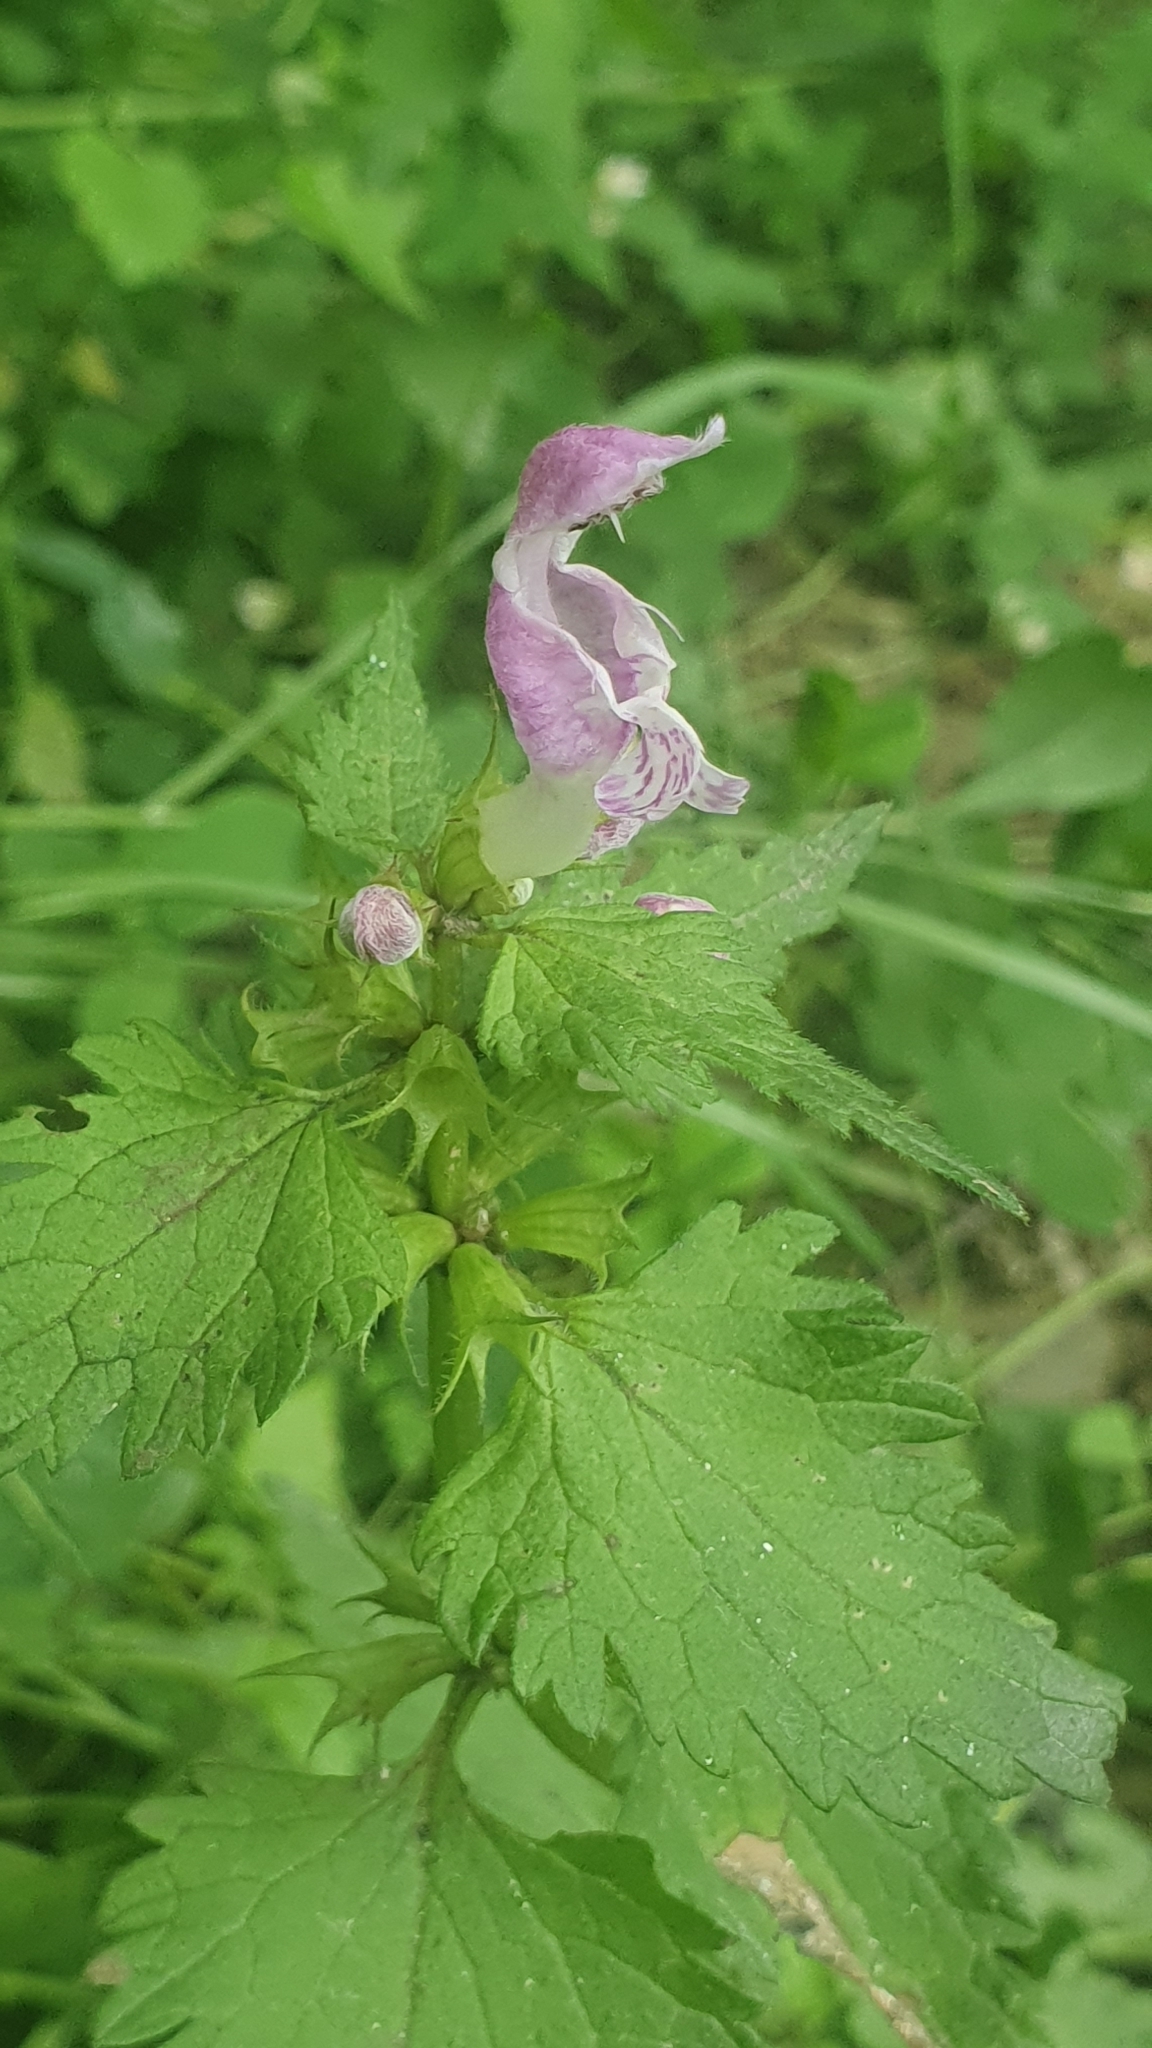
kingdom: Plantae
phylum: Tracheophyta
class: Magnoliopsida
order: Lamiales
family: Lamiaceae
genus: Lamium
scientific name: Lamium maculatum
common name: Spotted dead-nettle
